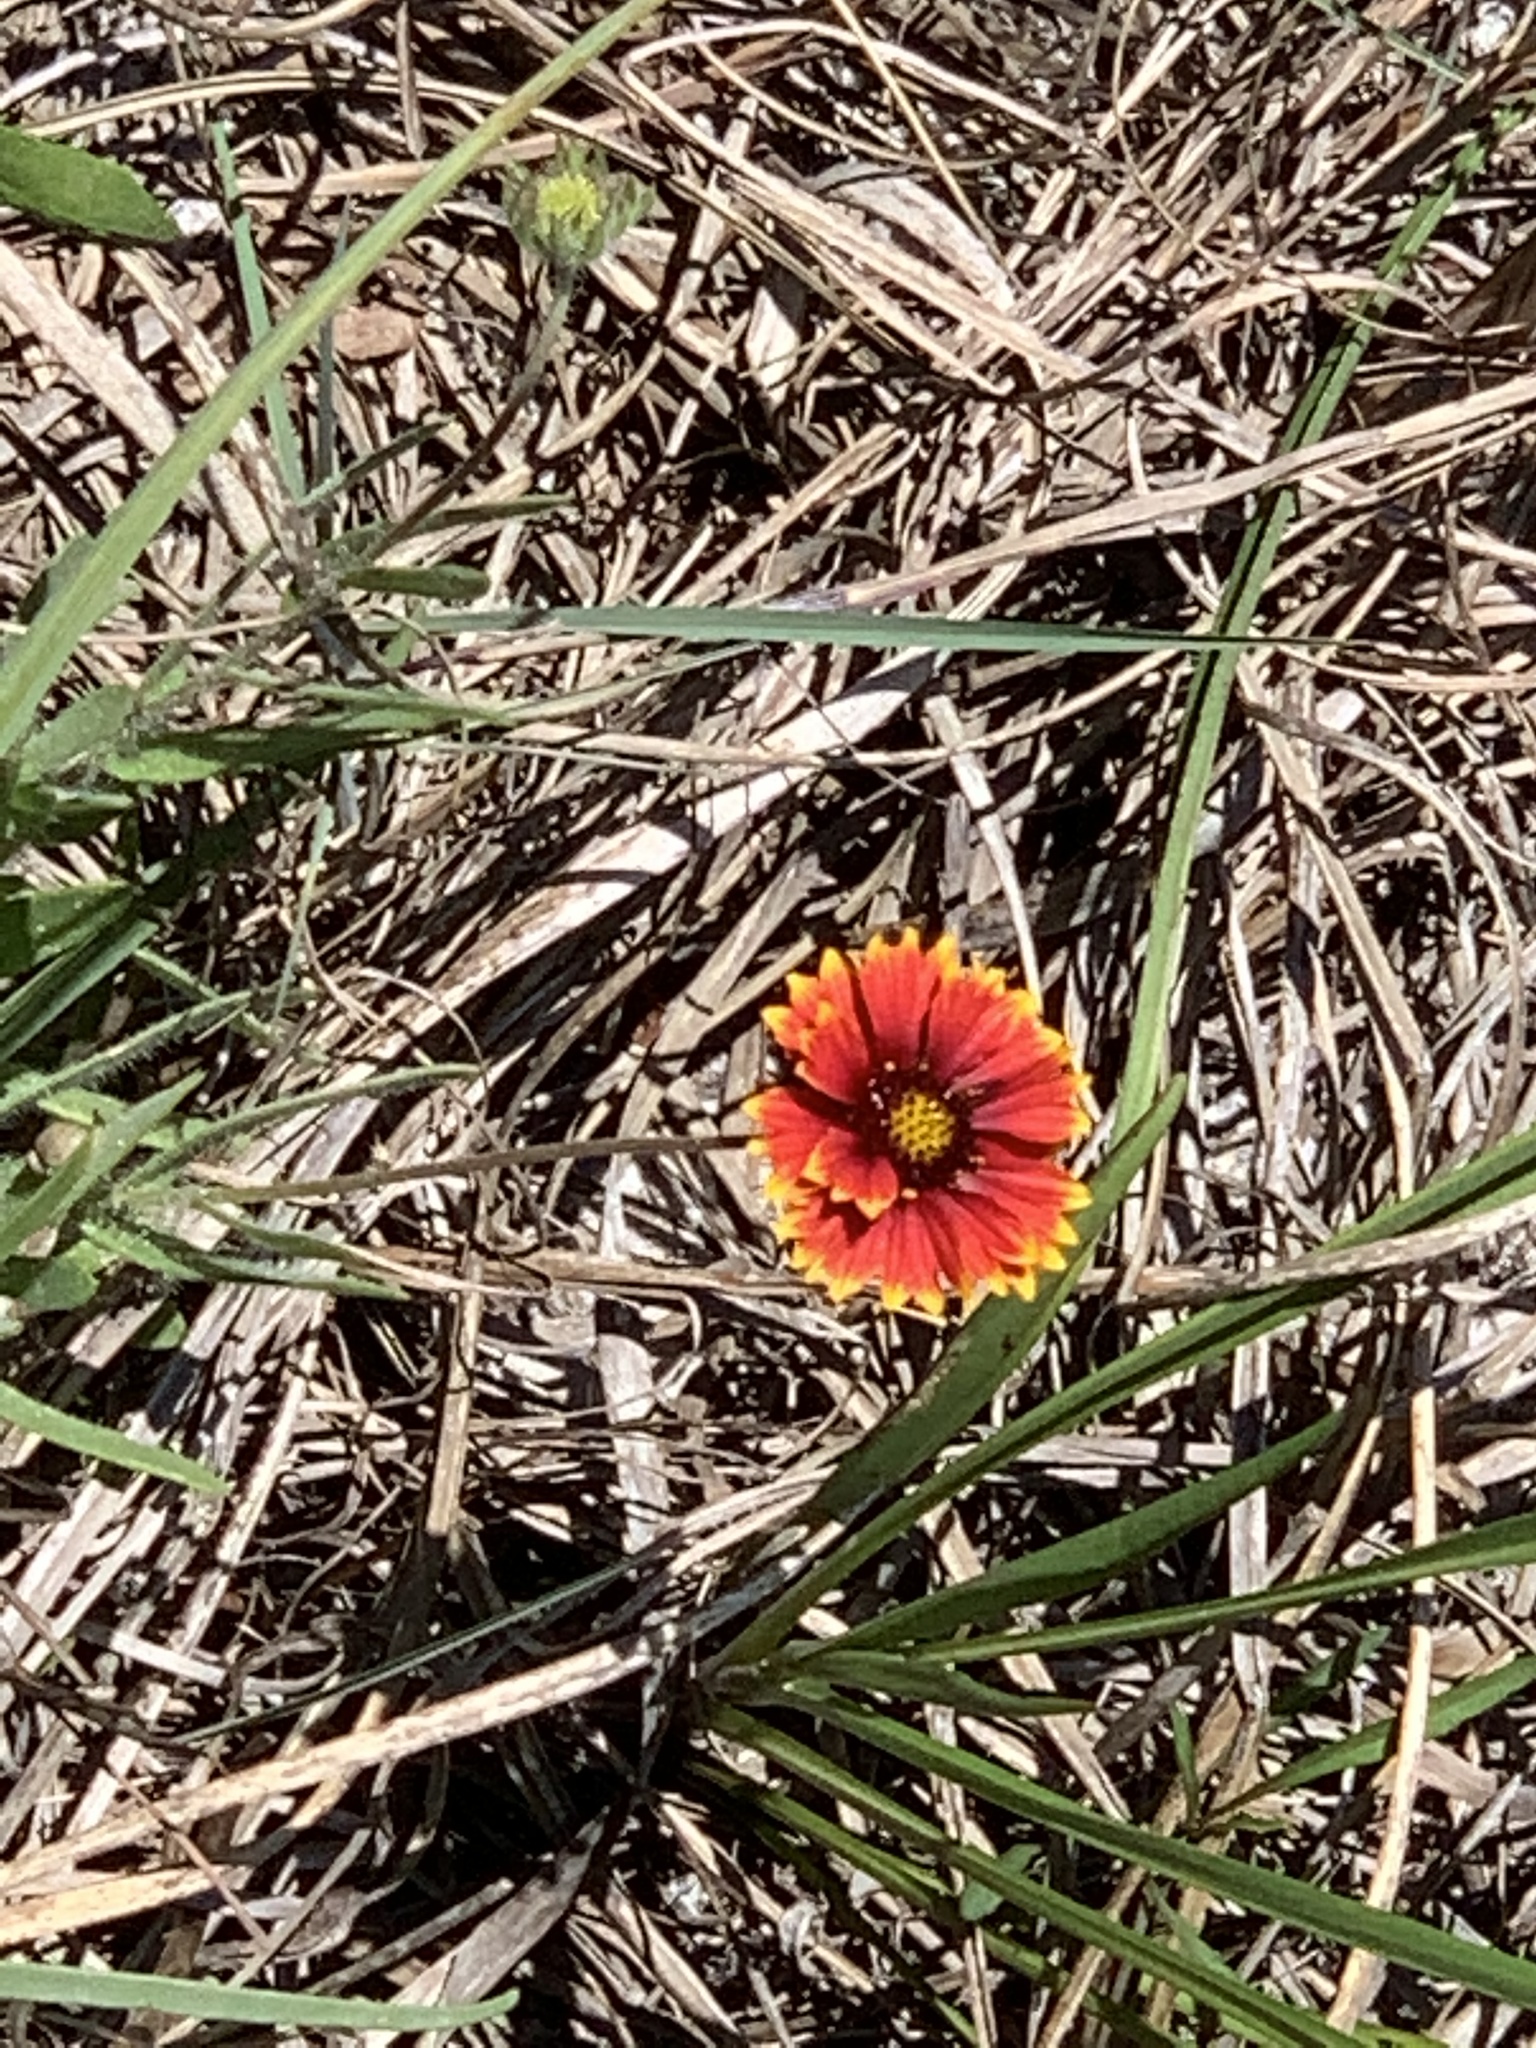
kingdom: Plantae
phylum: Tracheophyta
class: Magnoliopsida
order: Asterales
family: Asteraceae
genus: Gaillardia
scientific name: Gaillardia pulchella
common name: Firewheel
